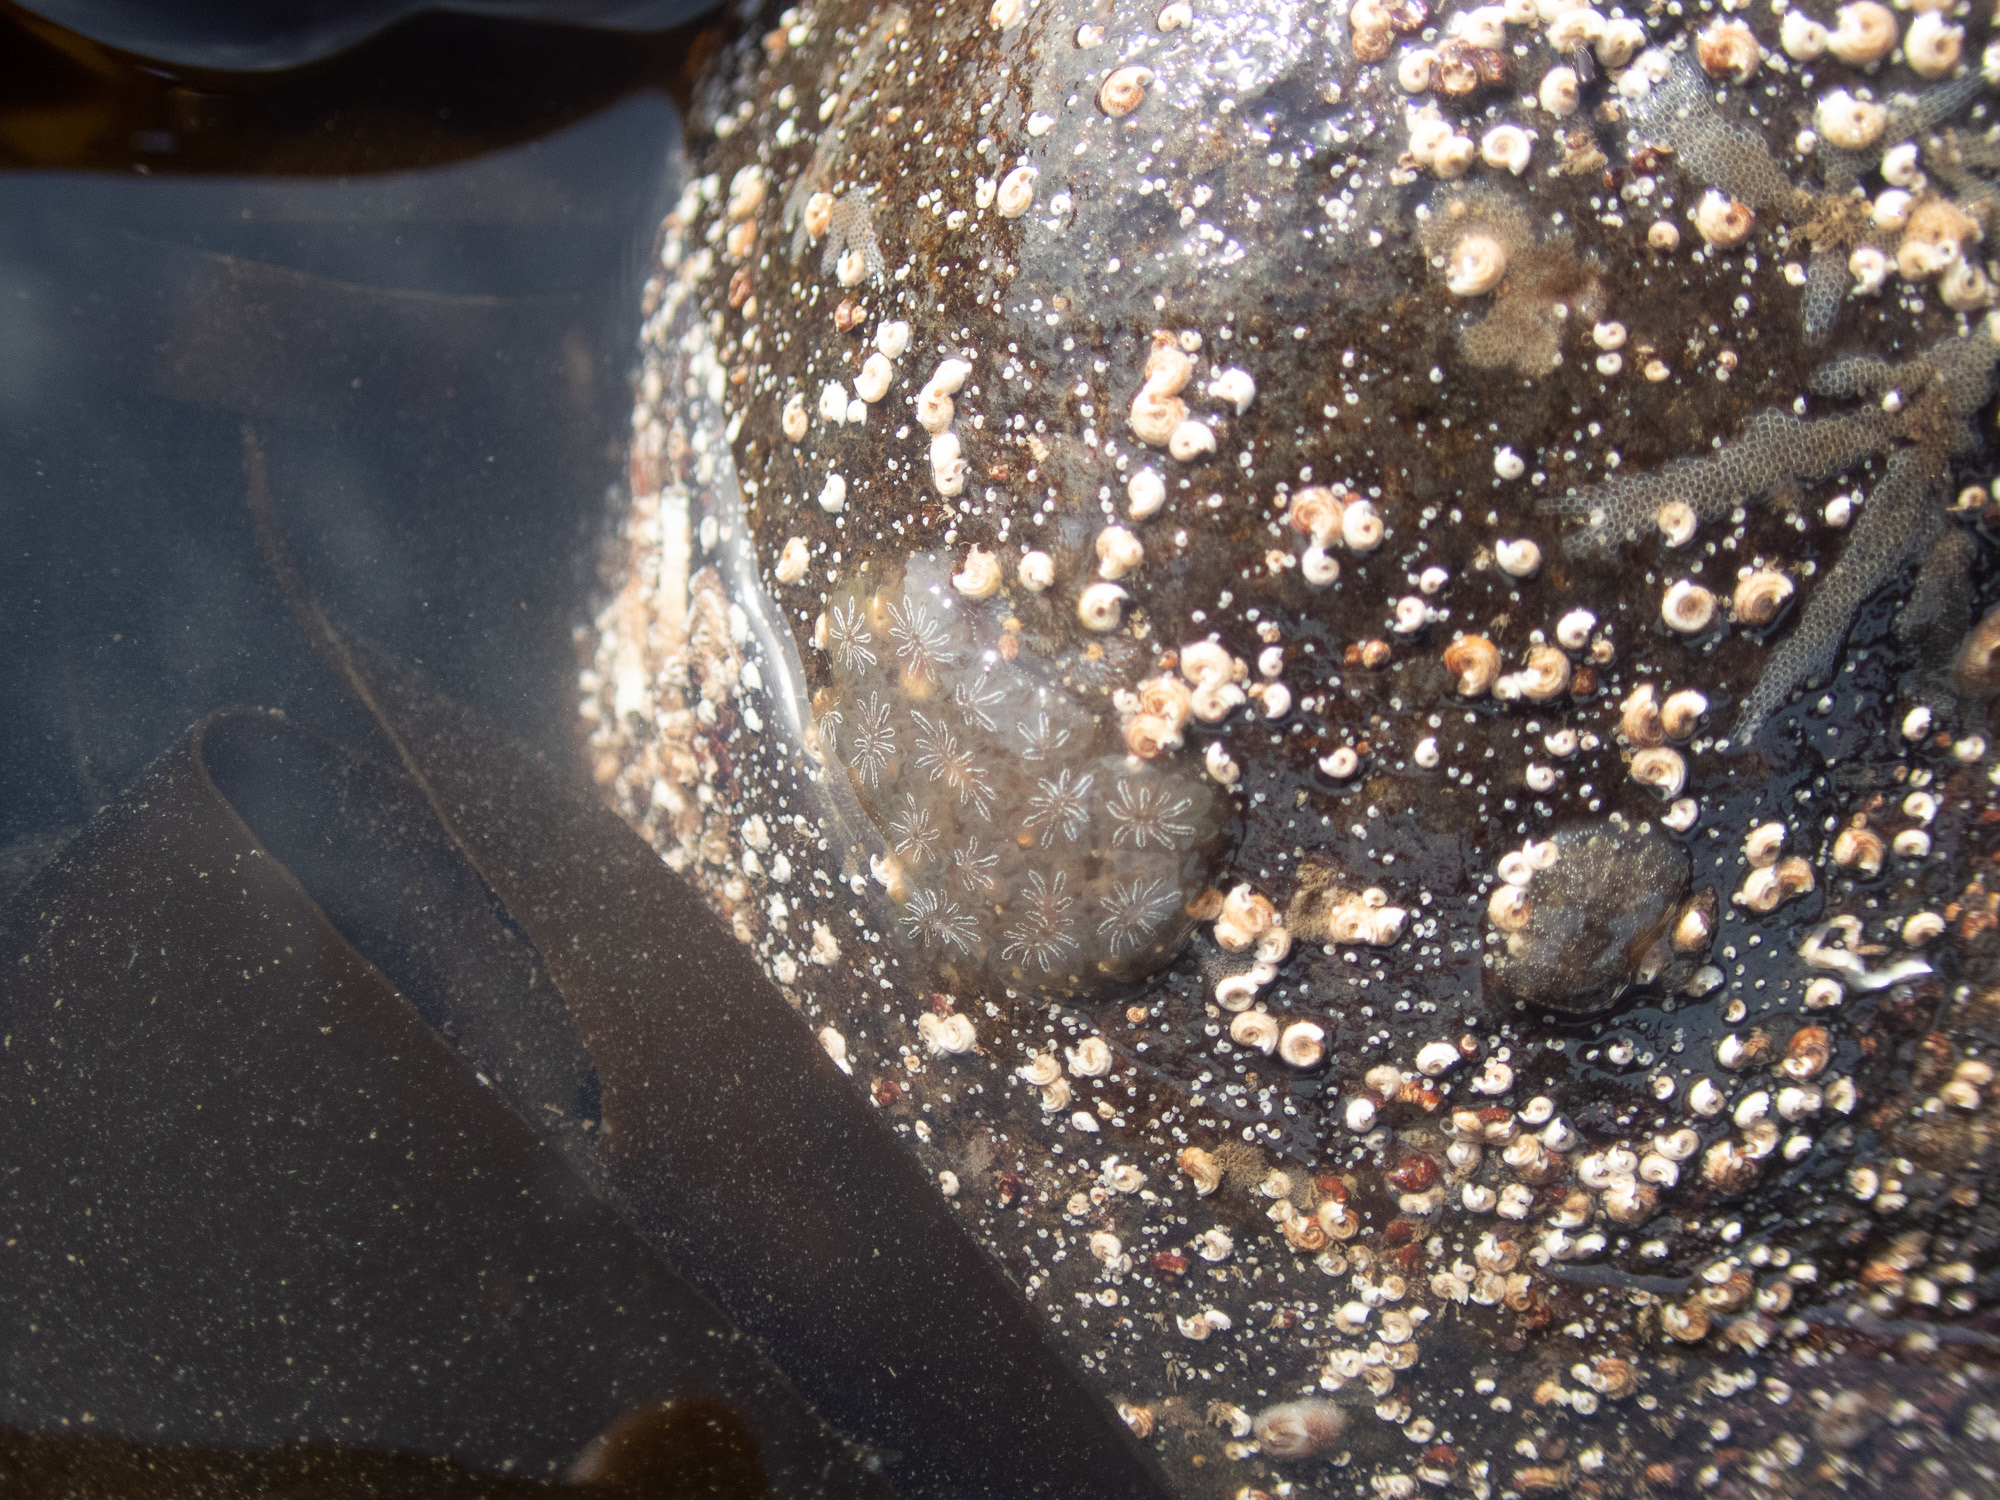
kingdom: Animalia
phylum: Chordata
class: Ascidiacea
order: Stolidobranchia
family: Styelidae
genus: Botryllus
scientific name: Botryllus schlosseri
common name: Golden star tunicate
